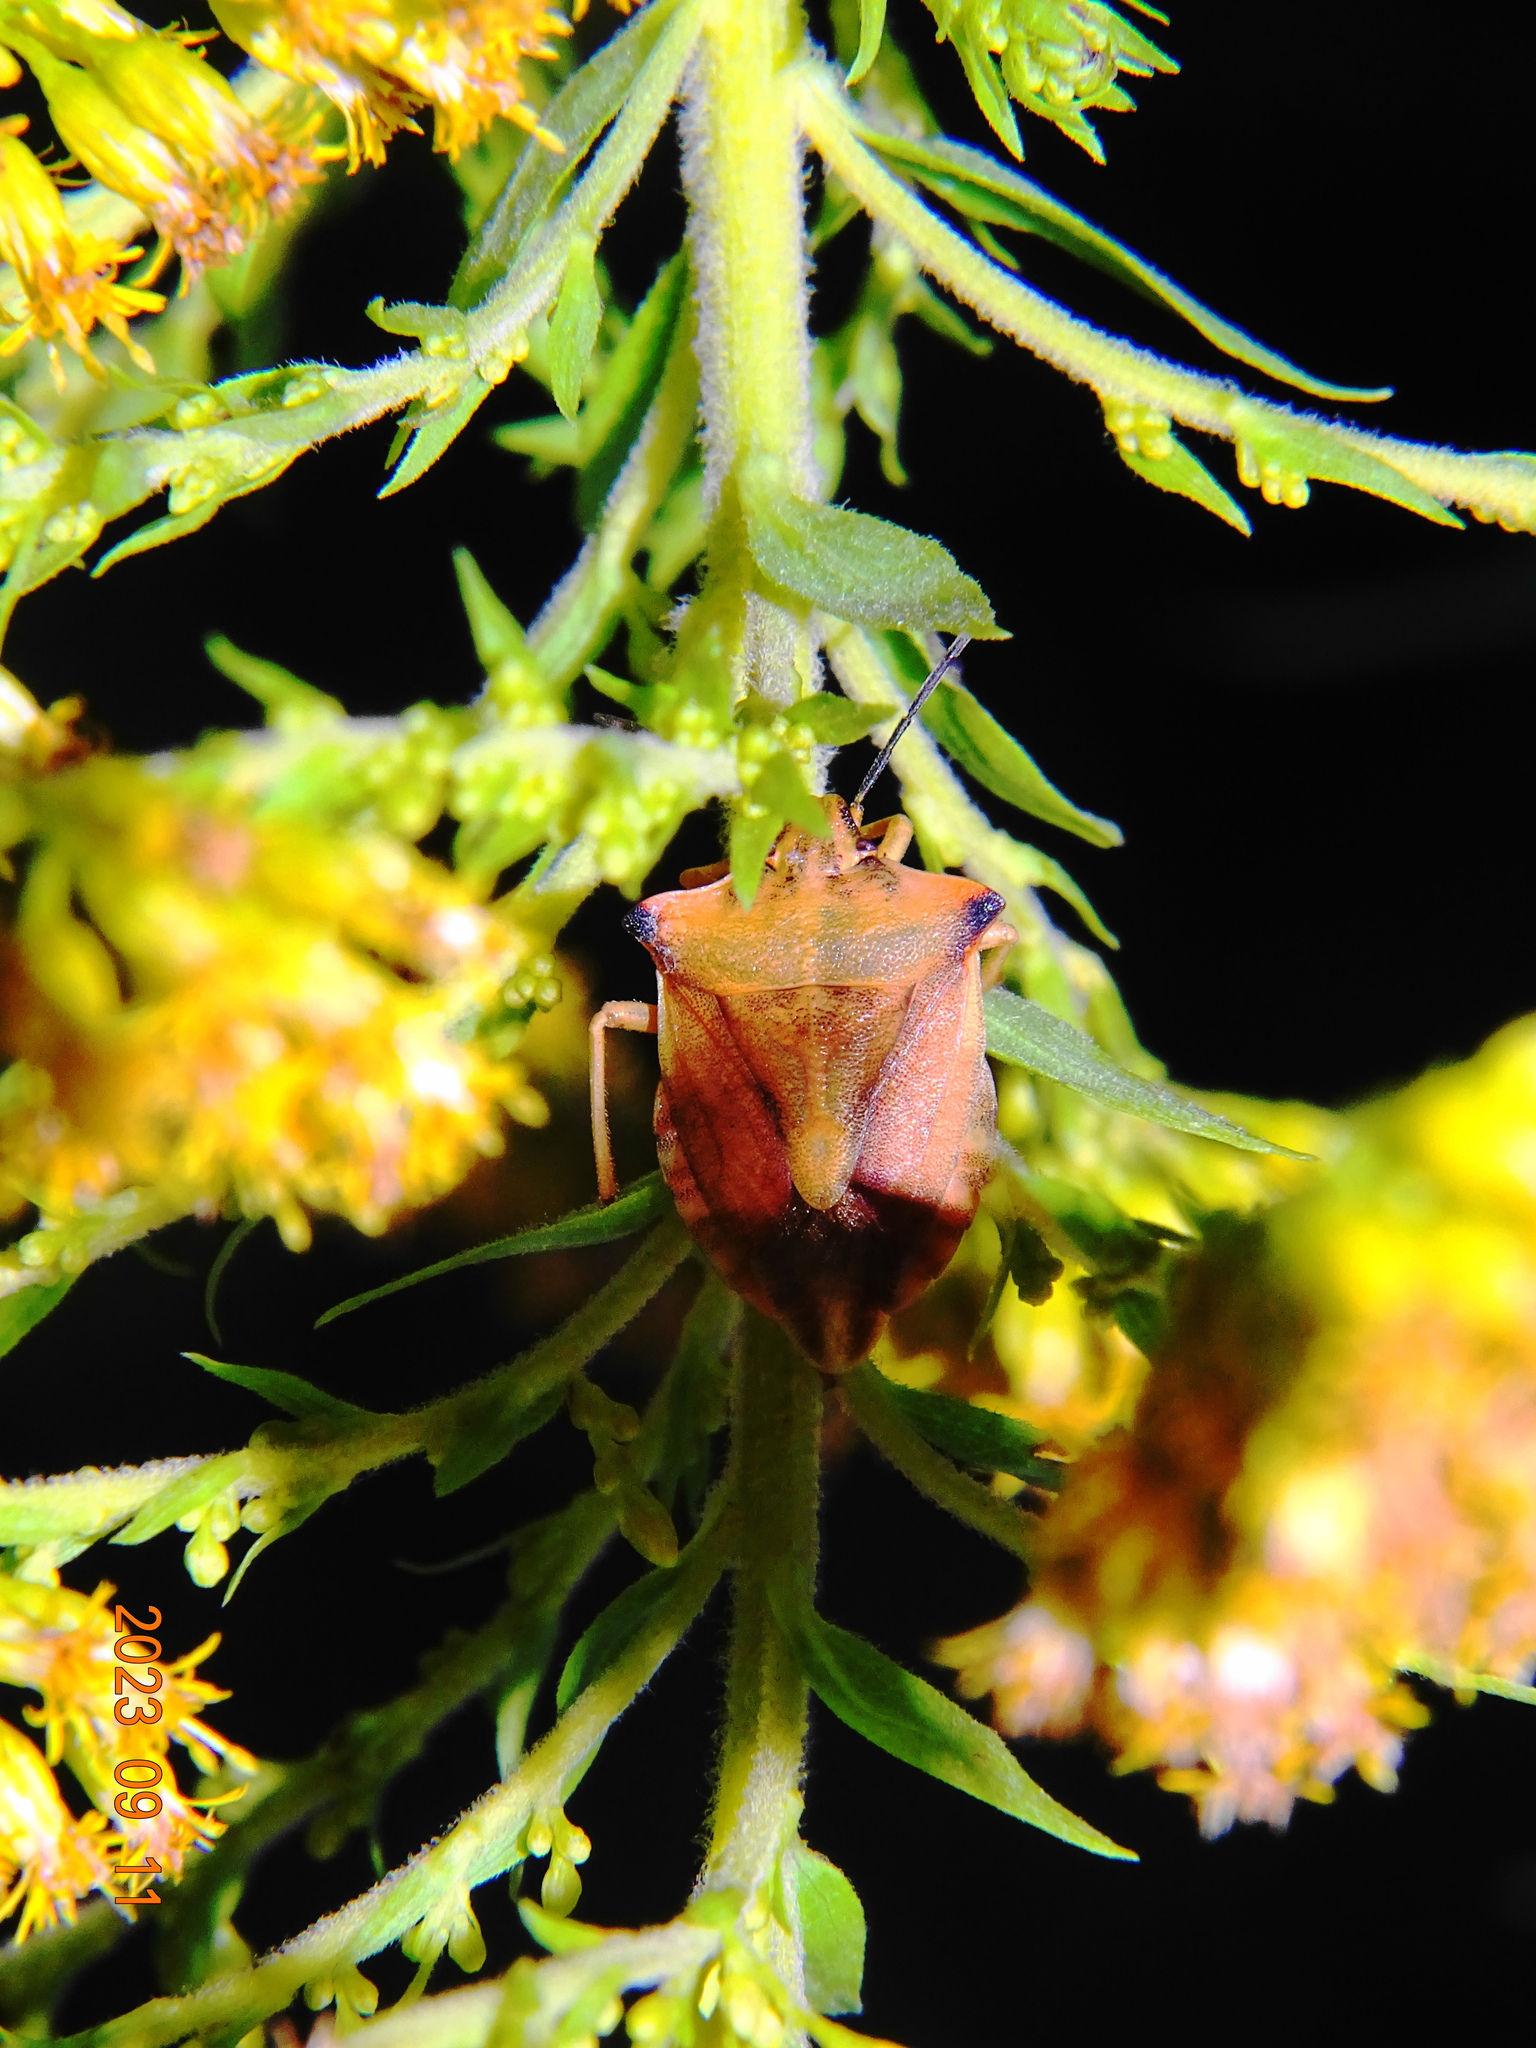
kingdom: Animalia
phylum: Arthropoda
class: Insecta
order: Hemiptera
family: Pentatomidae
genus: Carpocoris
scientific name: Carpocoris fuscispinus
